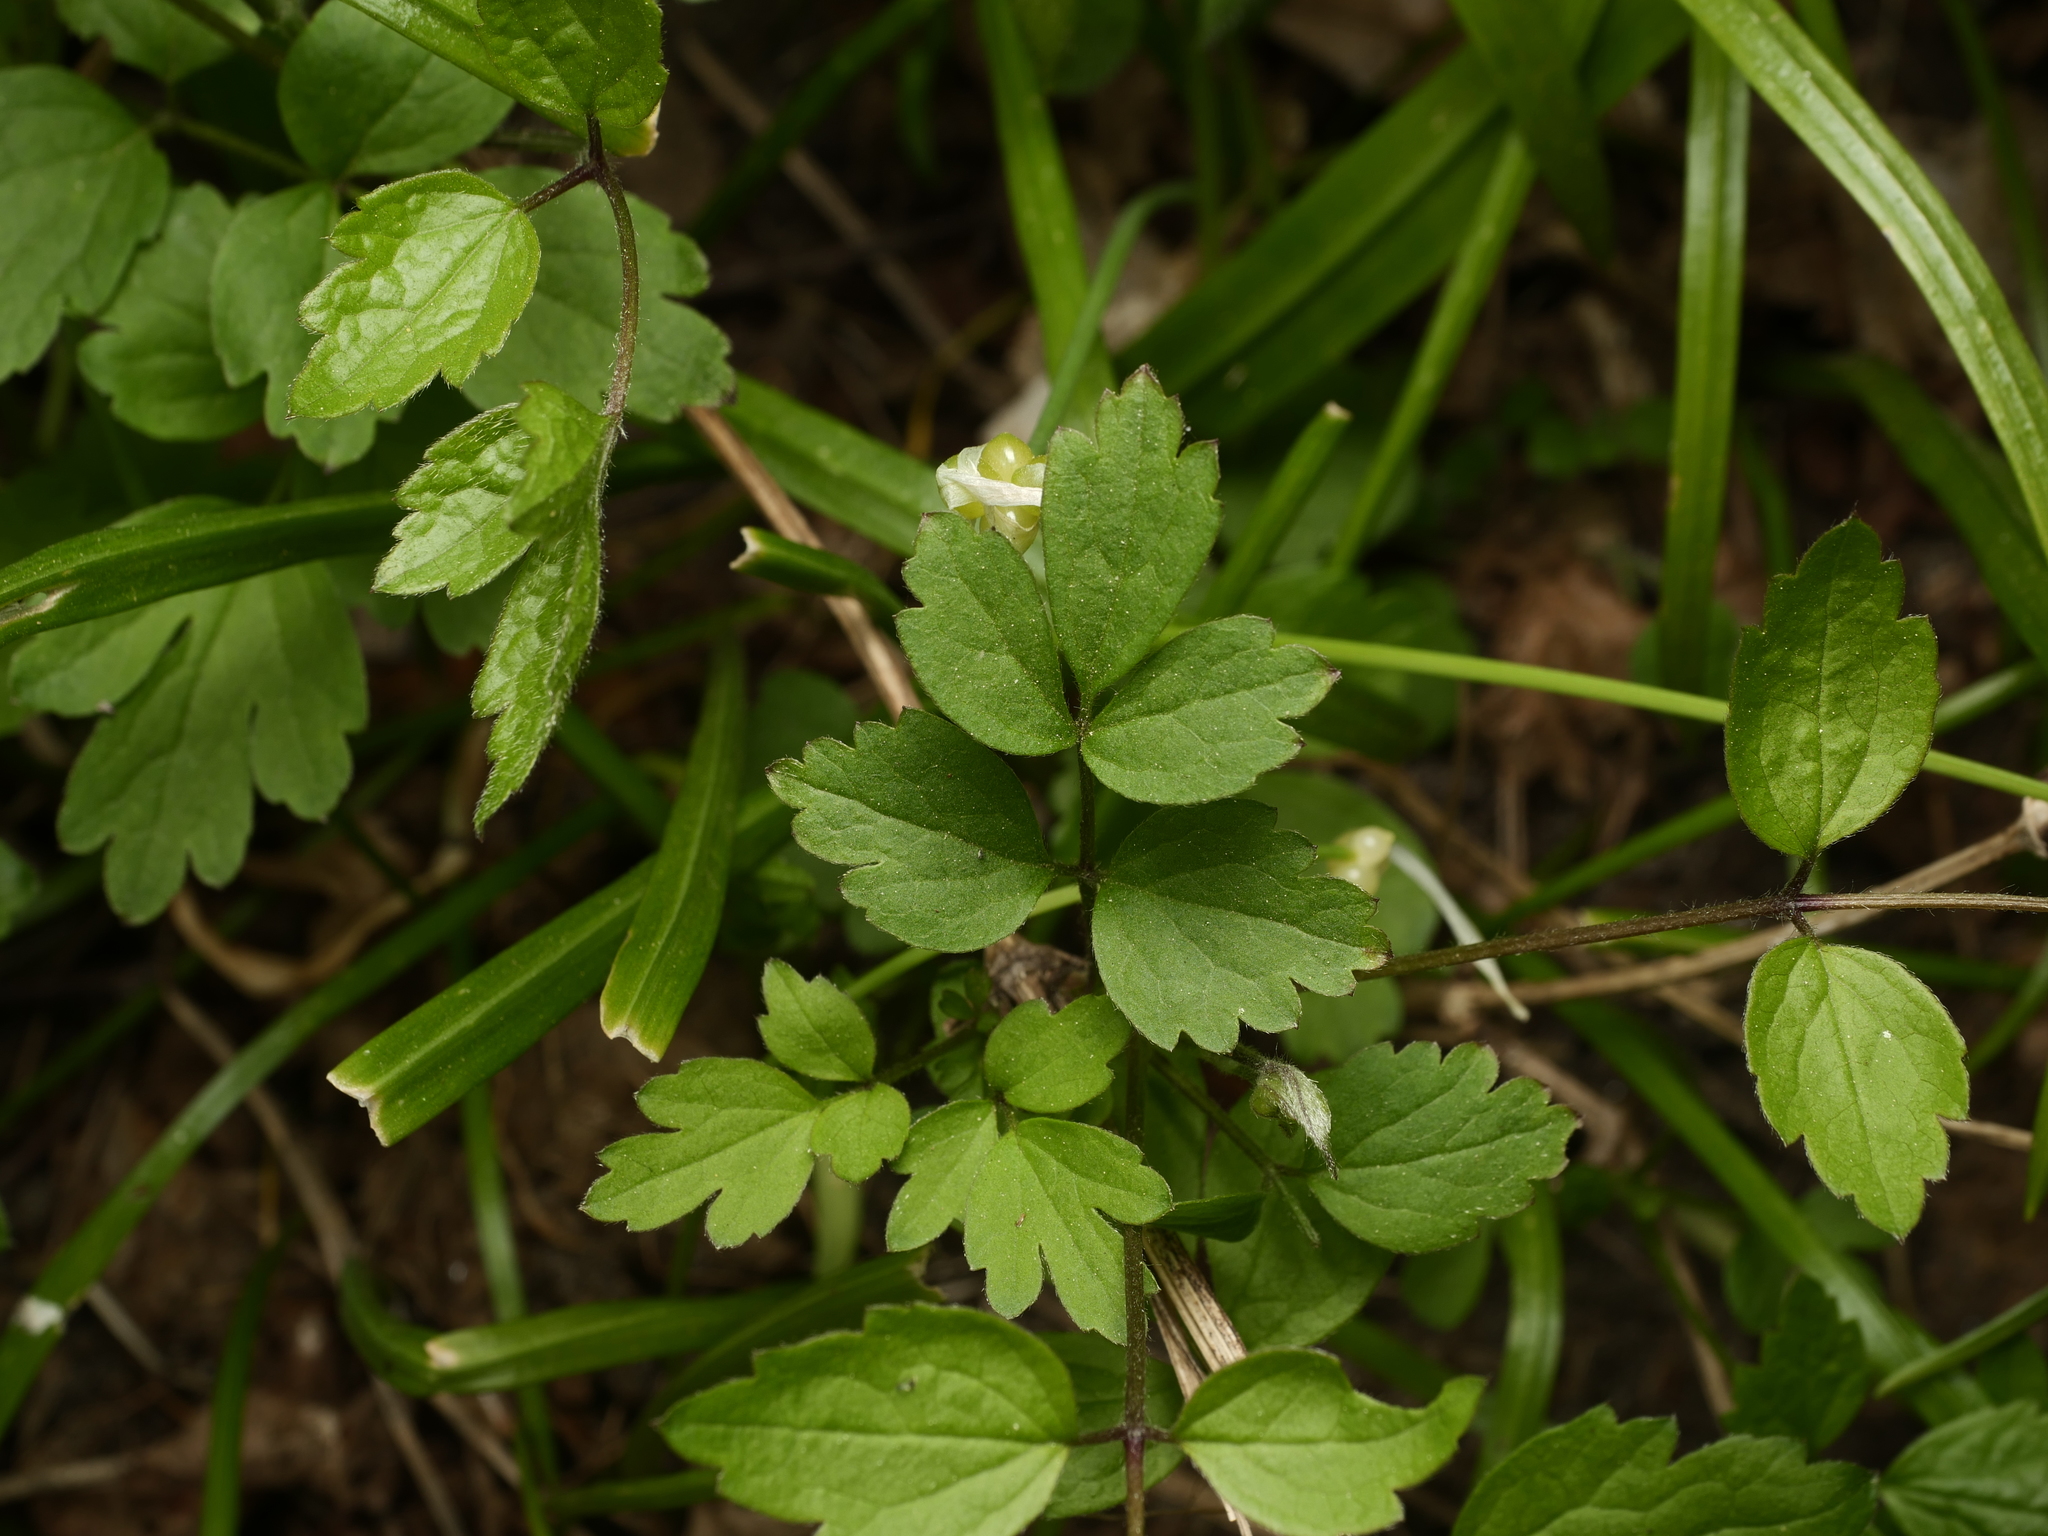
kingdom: Plantae
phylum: Tracheophyta
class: Magnoliopsida
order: Ranunculales
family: Ranunculaceae
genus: Clematis
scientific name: Clematis vitalba
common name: Evergreen clematis
